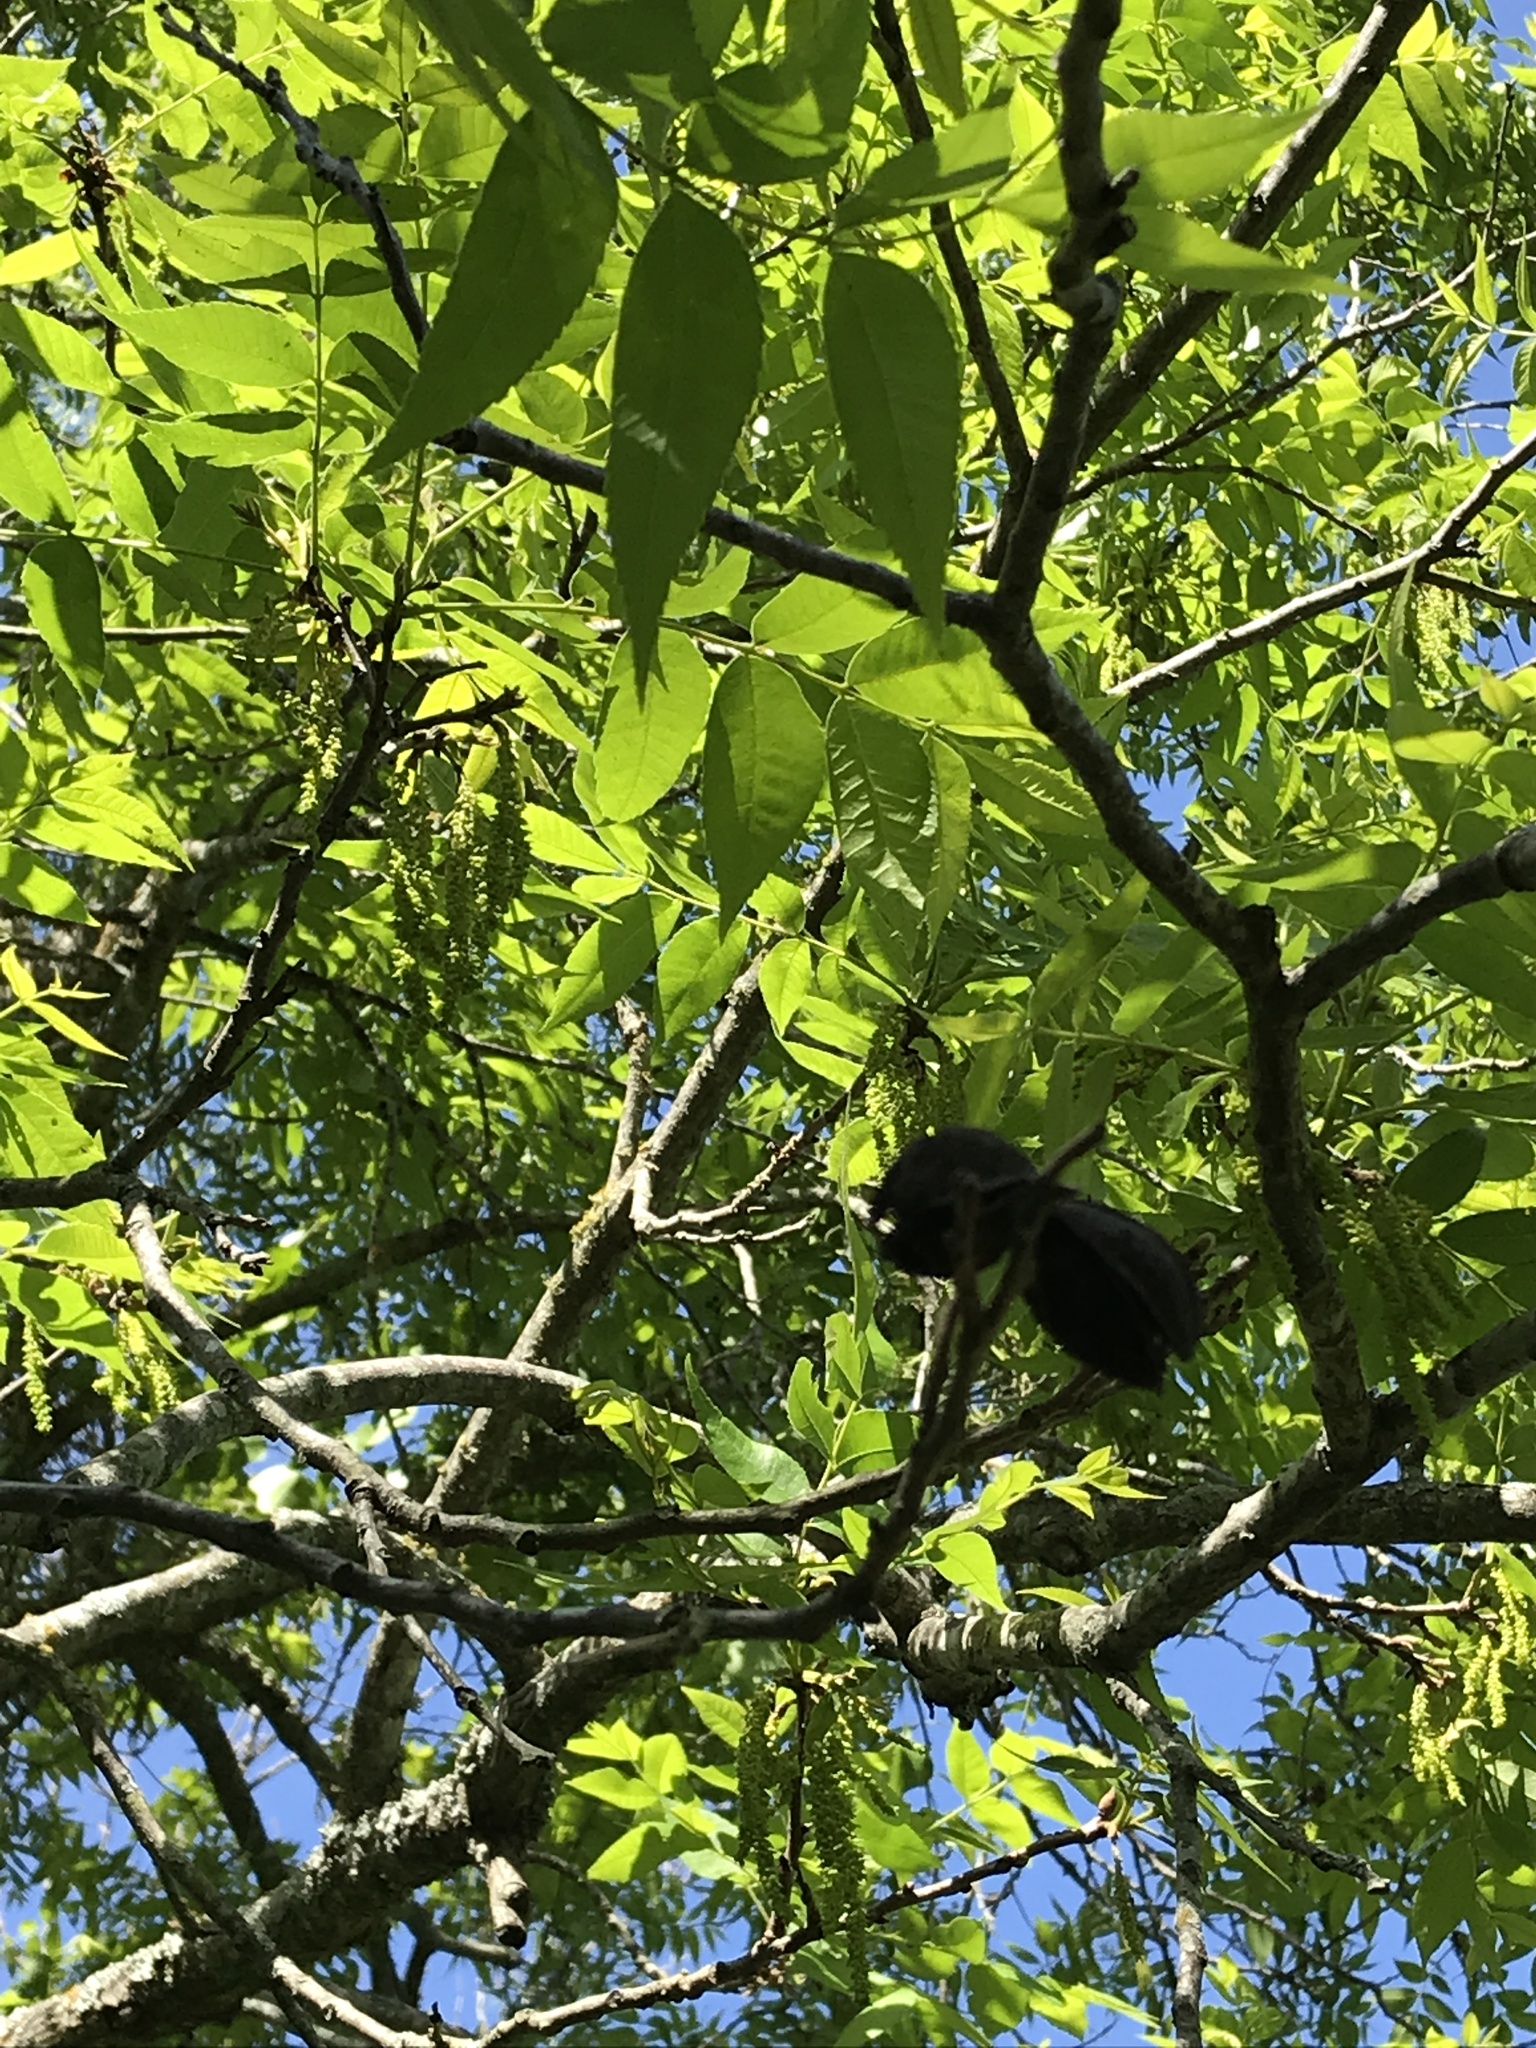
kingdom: Plantae
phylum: Tracheophyta
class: Magnoliopsida
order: Fagales
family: Juglandaceae
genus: Carya
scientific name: Carya illinoinensis
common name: Pecan
